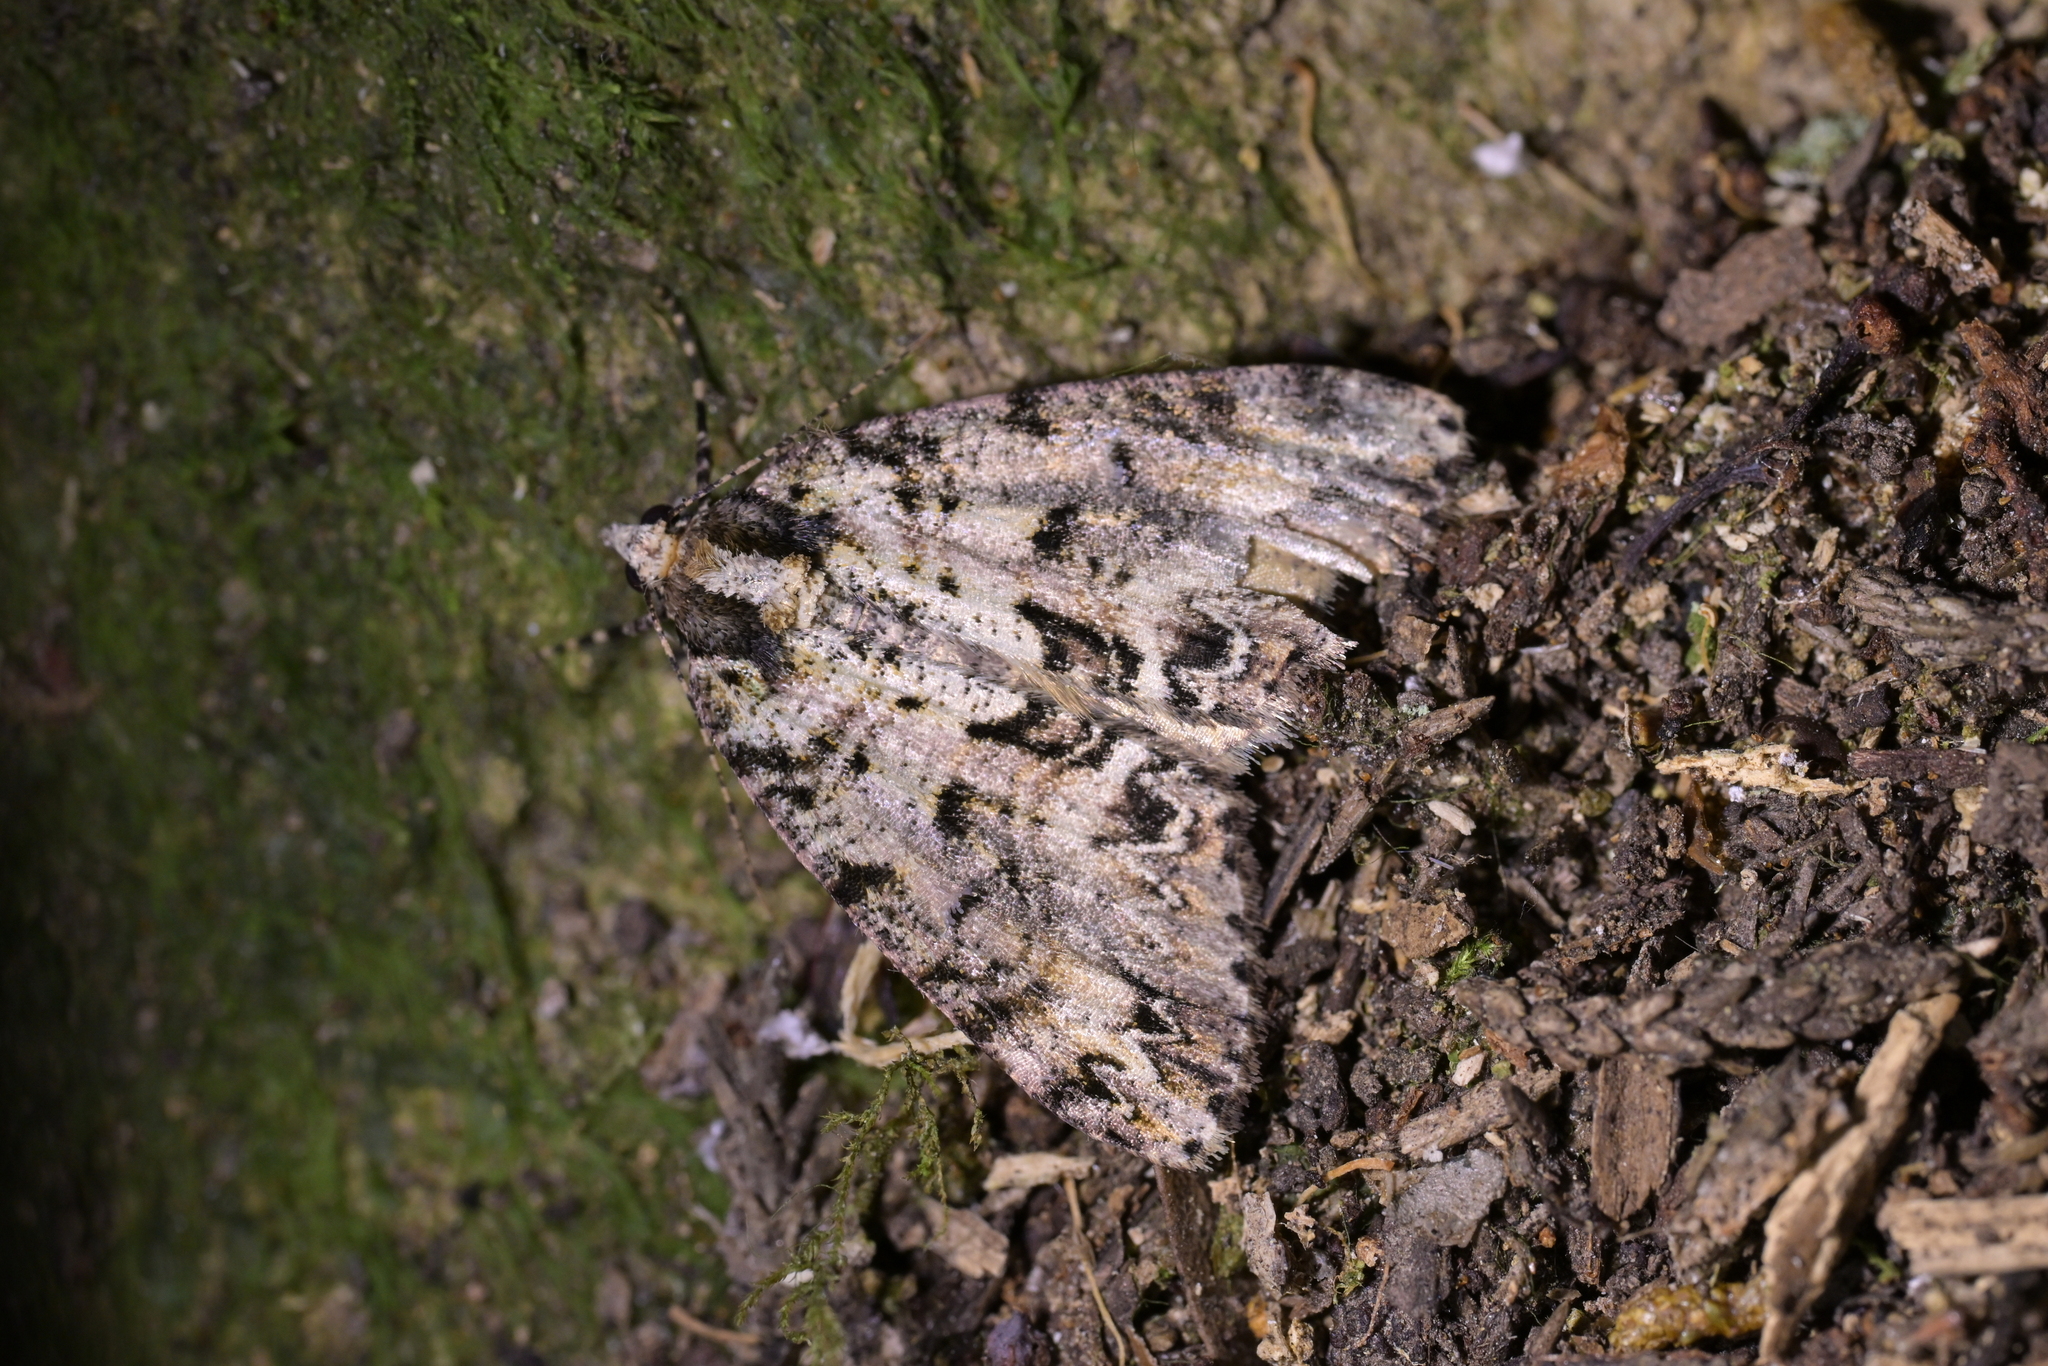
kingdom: Animalia
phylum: Arthropoda
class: Insecta
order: Lepidoptera
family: Geometridae
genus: Pseudocoremia
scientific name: Pseudocoremia suavis
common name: Common forest looper
